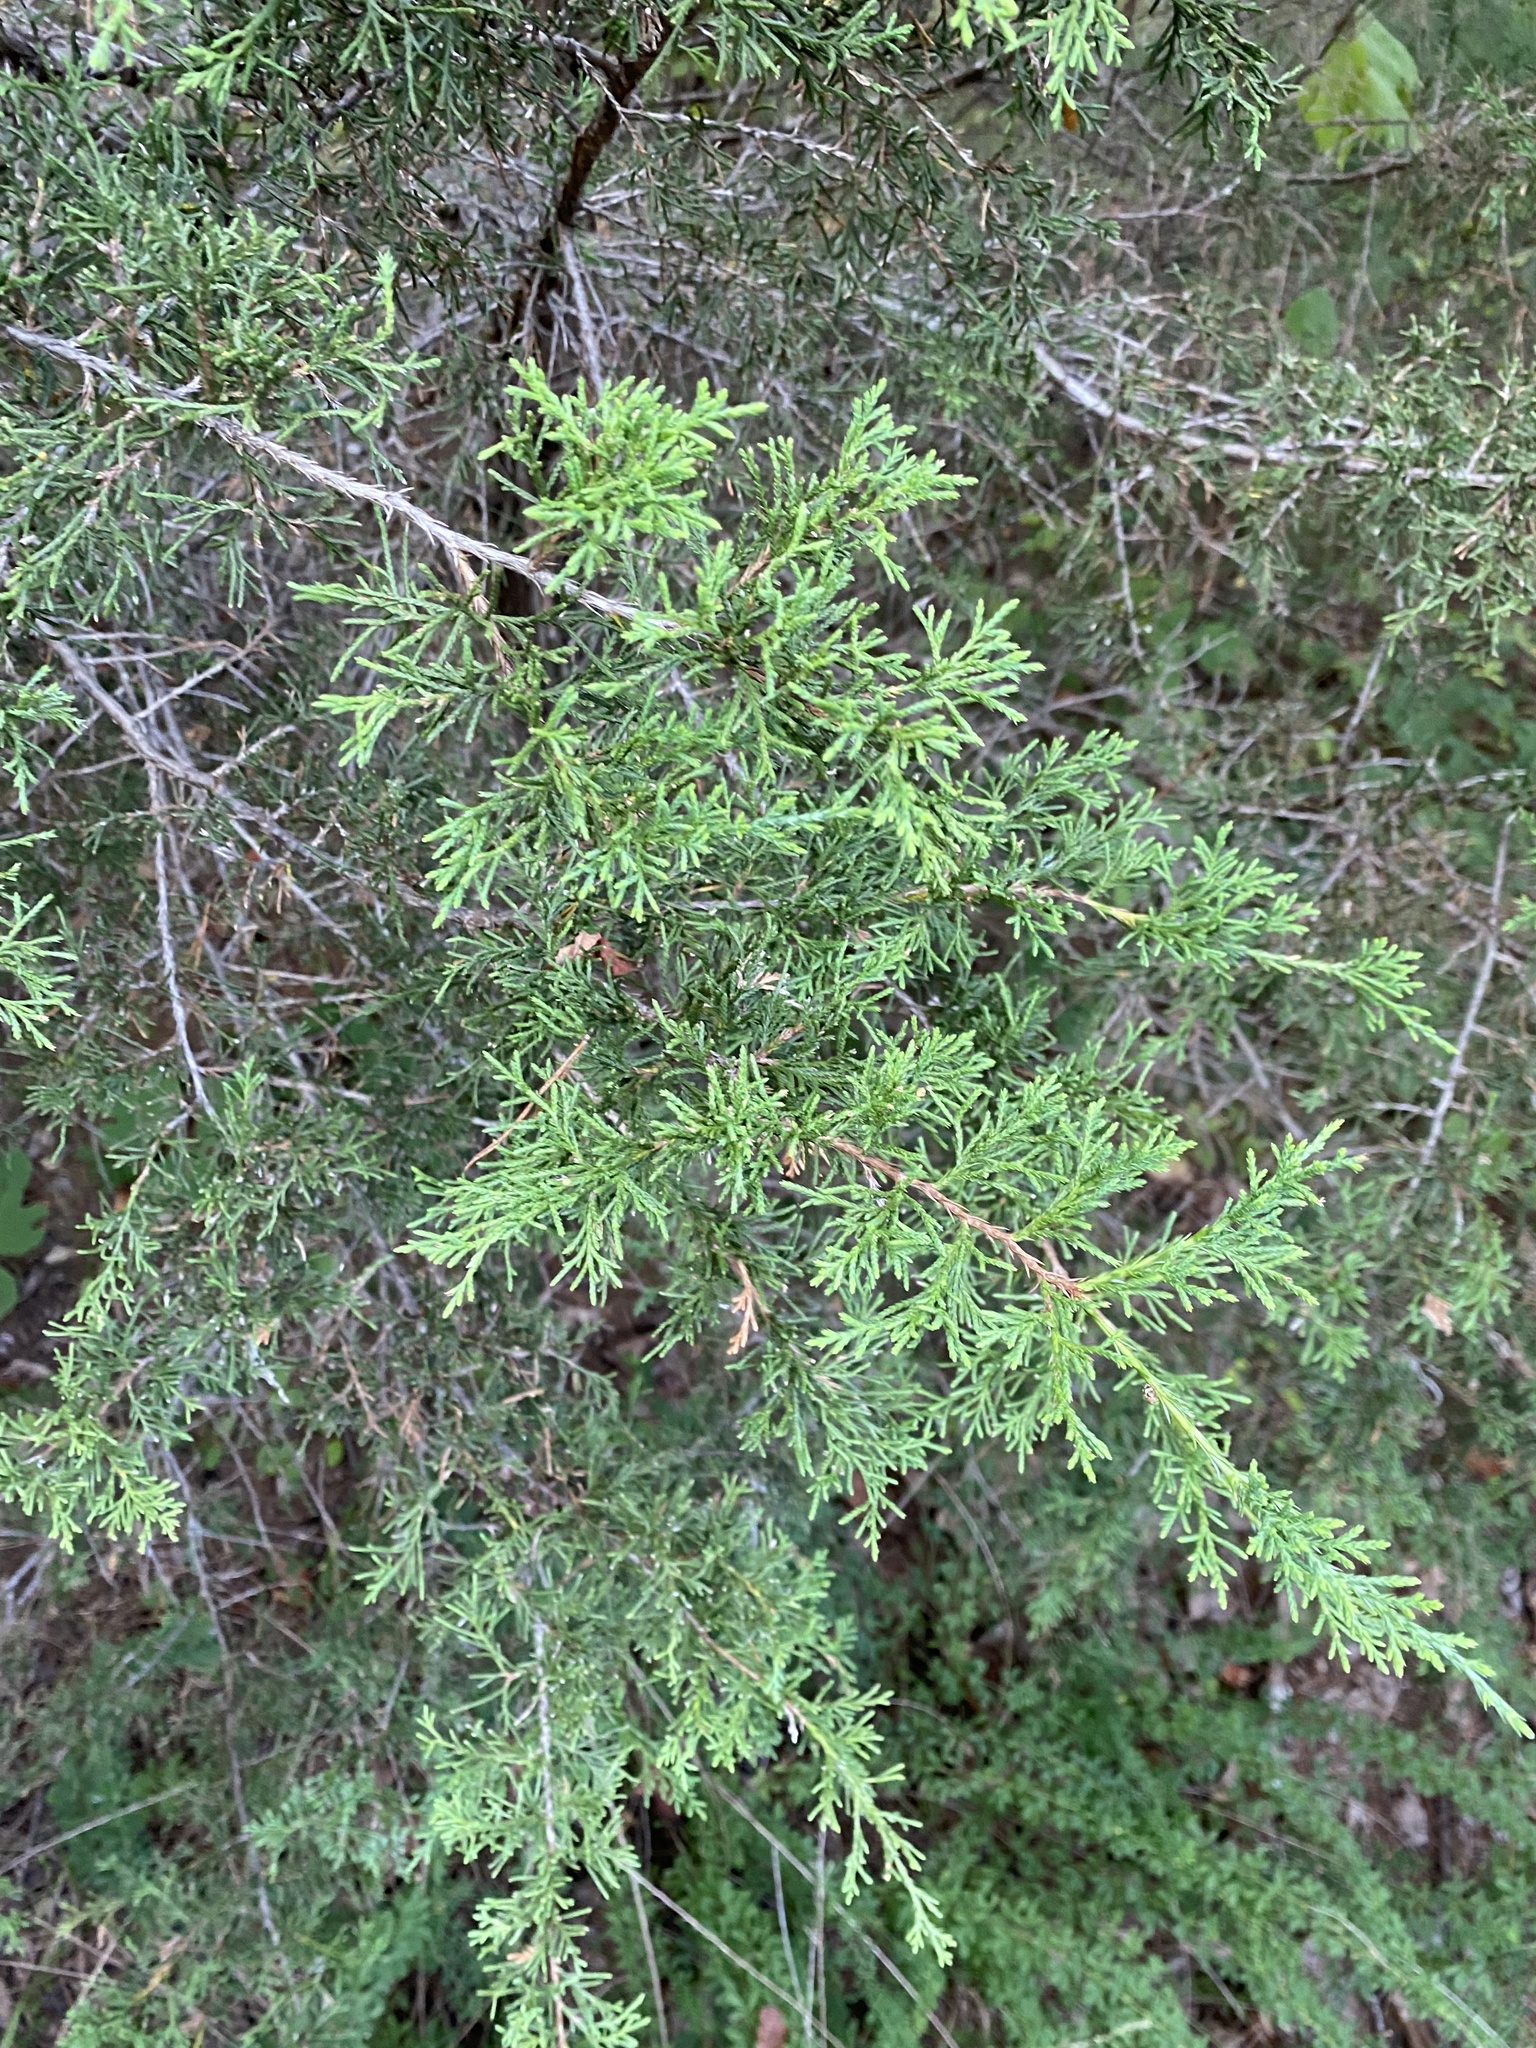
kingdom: Plantae
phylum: Tracheophyta
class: Pinopsida
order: Pinales
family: Cupressaceae
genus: Juniperus
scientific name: Juniperus virginiana
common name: Red juniper
